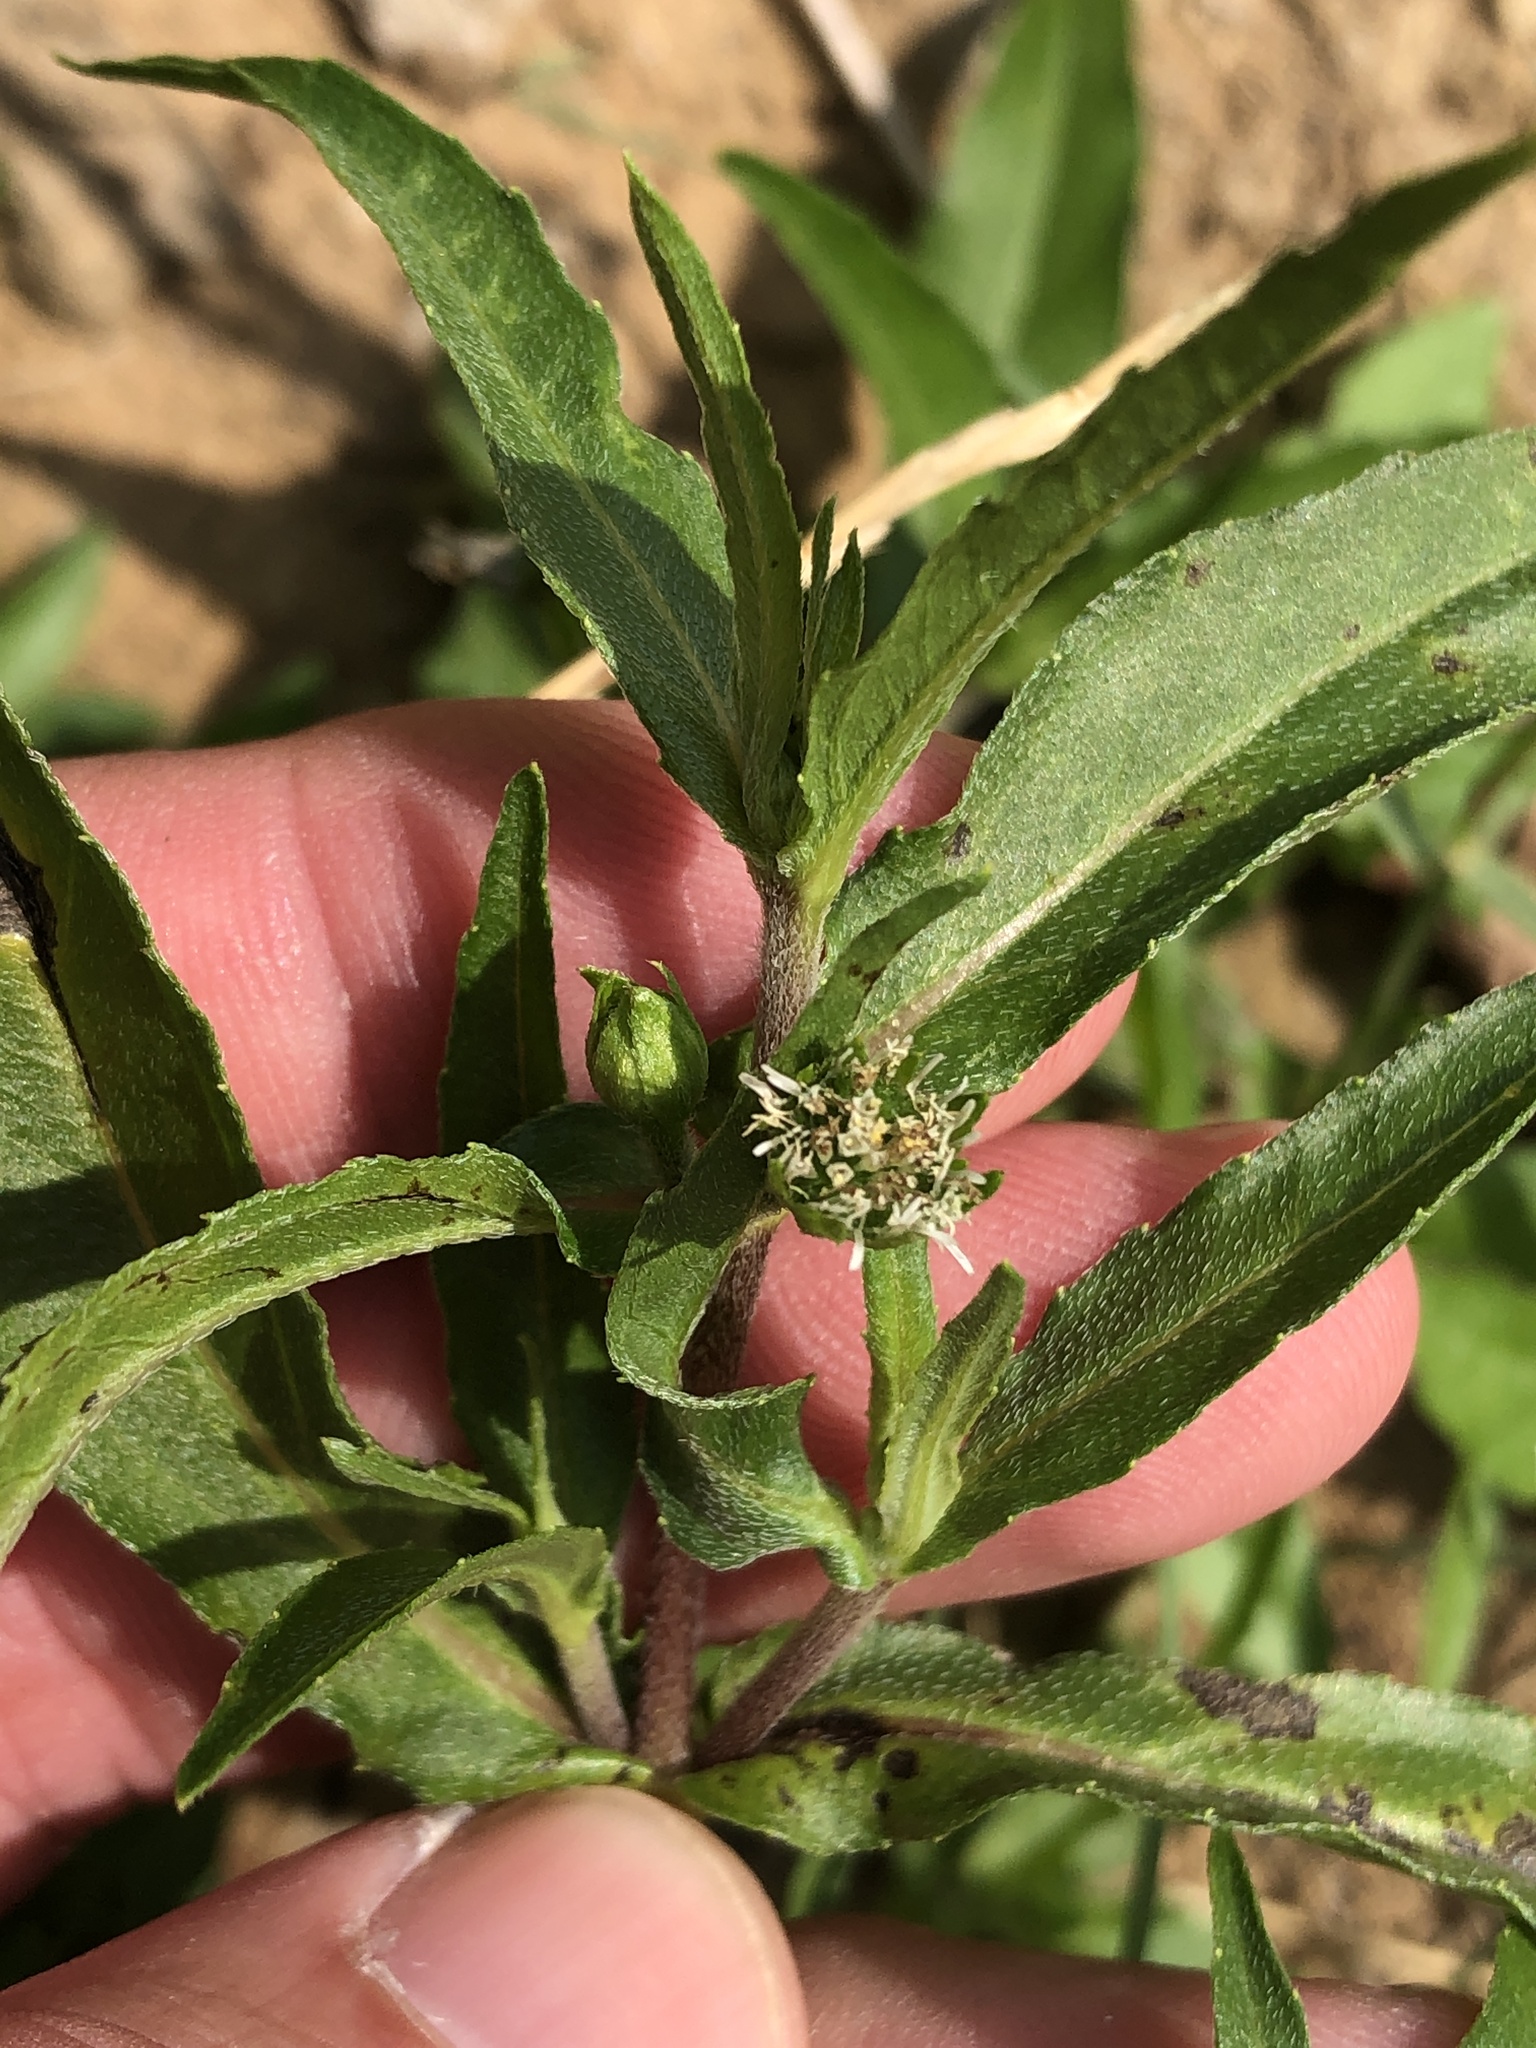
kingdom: Plantae
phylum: Tracheophyta
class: Magnoliopsida
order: Asterales
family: Asteraceae
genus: Eclipta
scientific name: Eclipta prostrata
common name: False daisy
